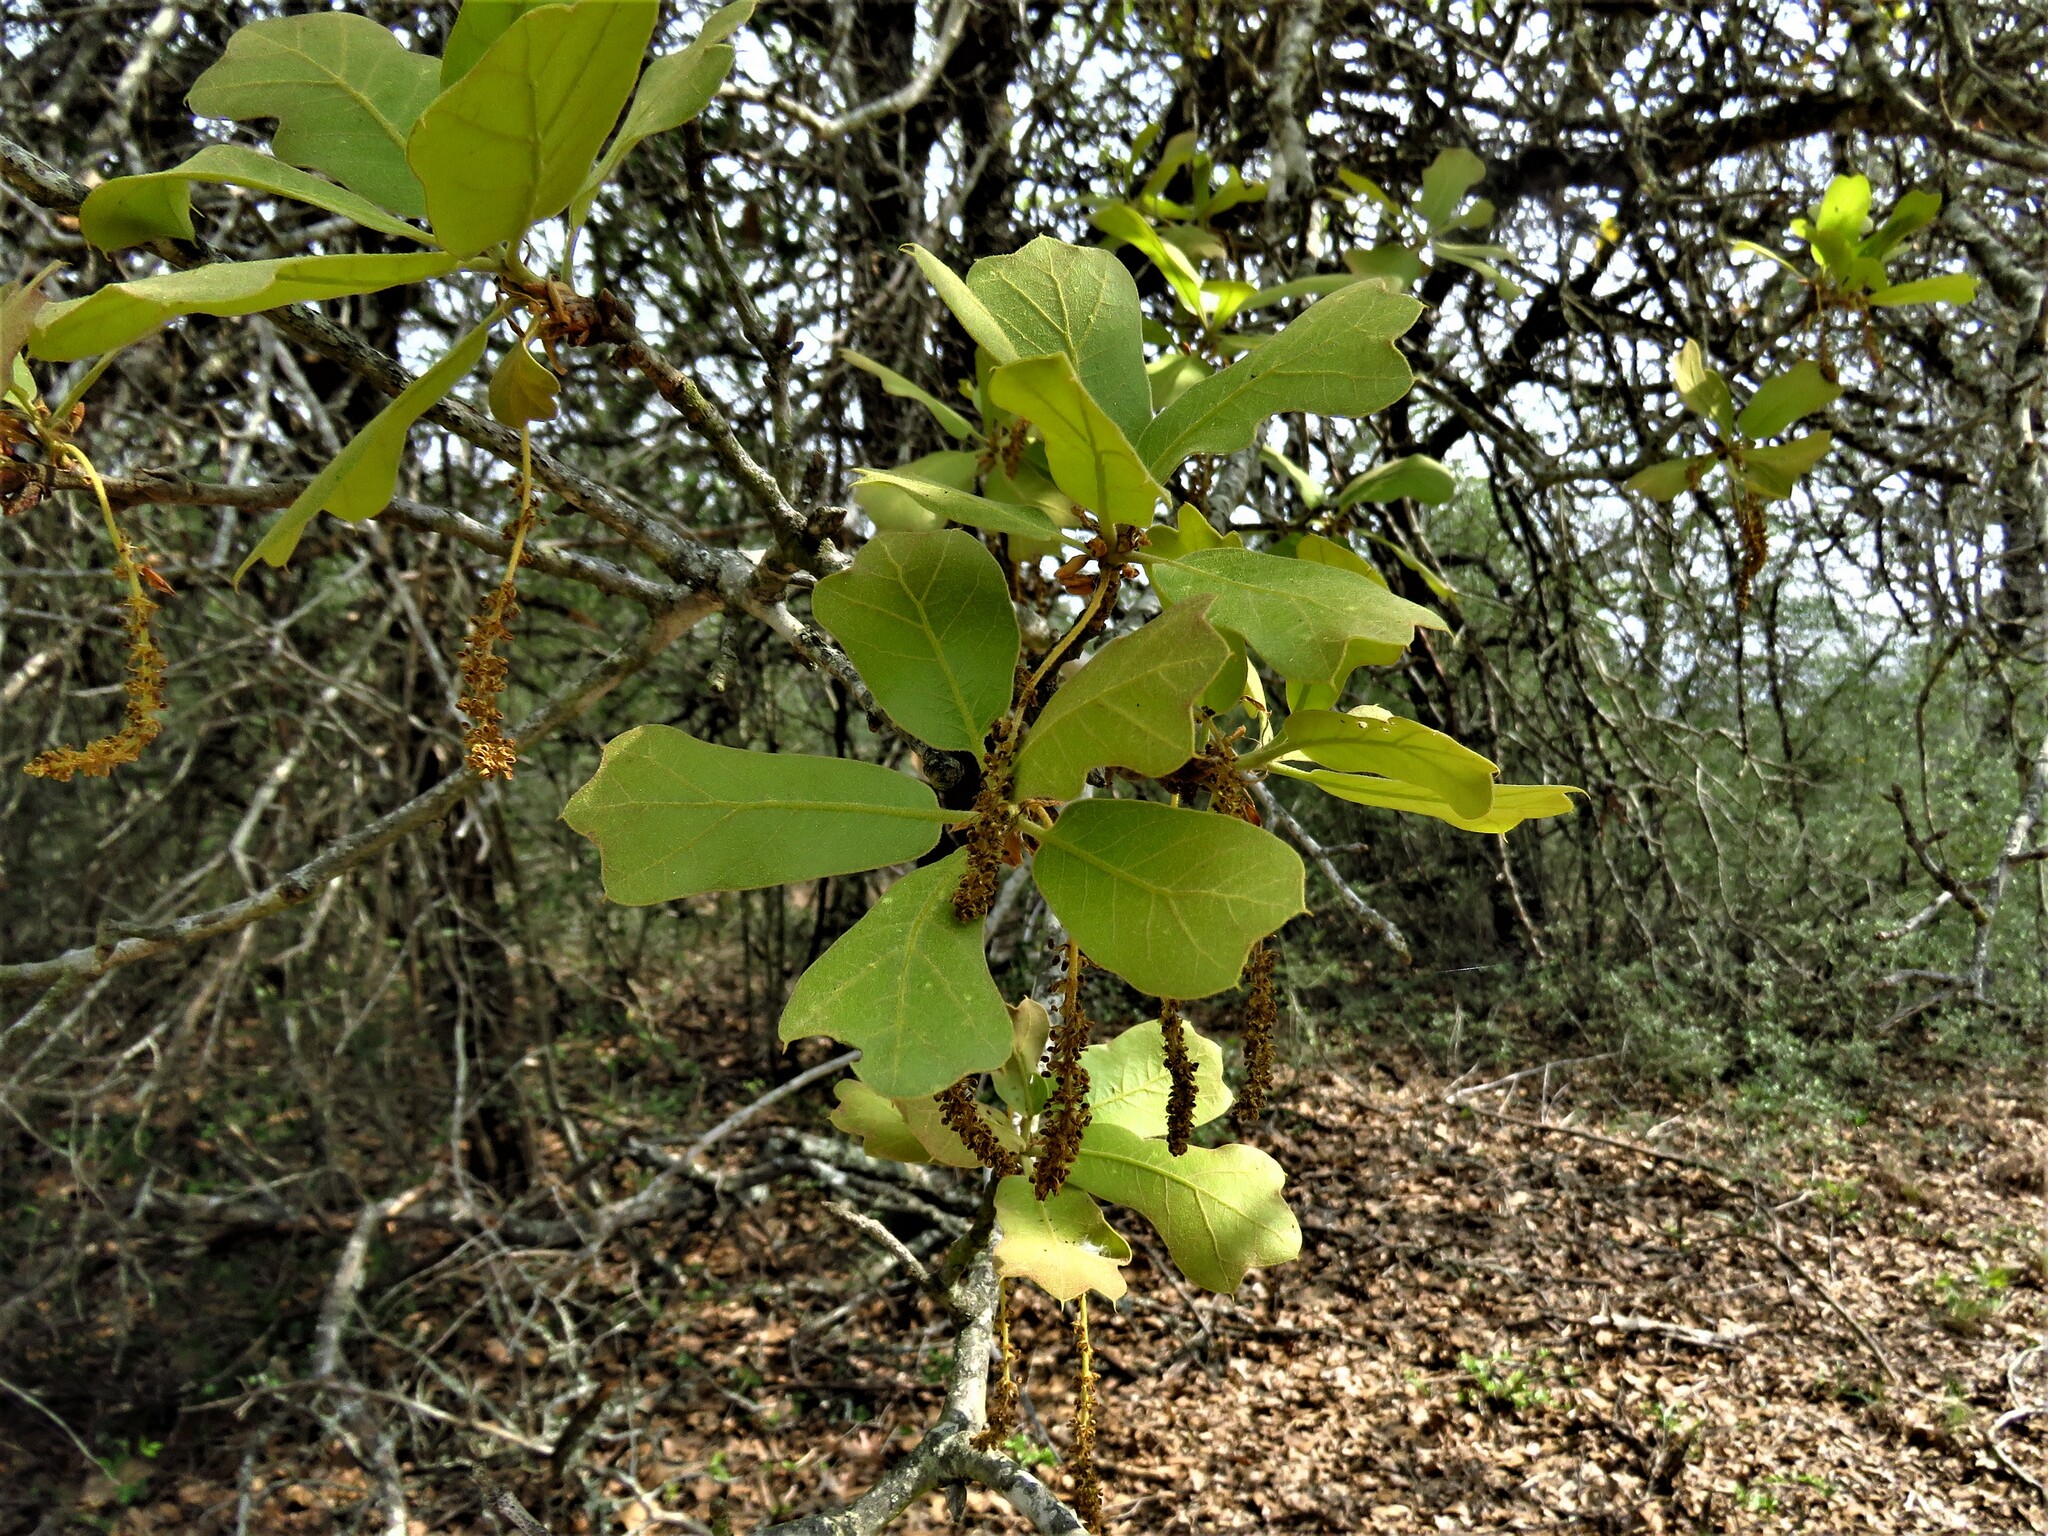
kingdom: Plantae
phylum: Tracheophyta
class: Magnoliopsida
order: Fagales
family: Fagaceae
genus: Quercus
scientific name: Quercus marilandica
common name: Blackjack oak
